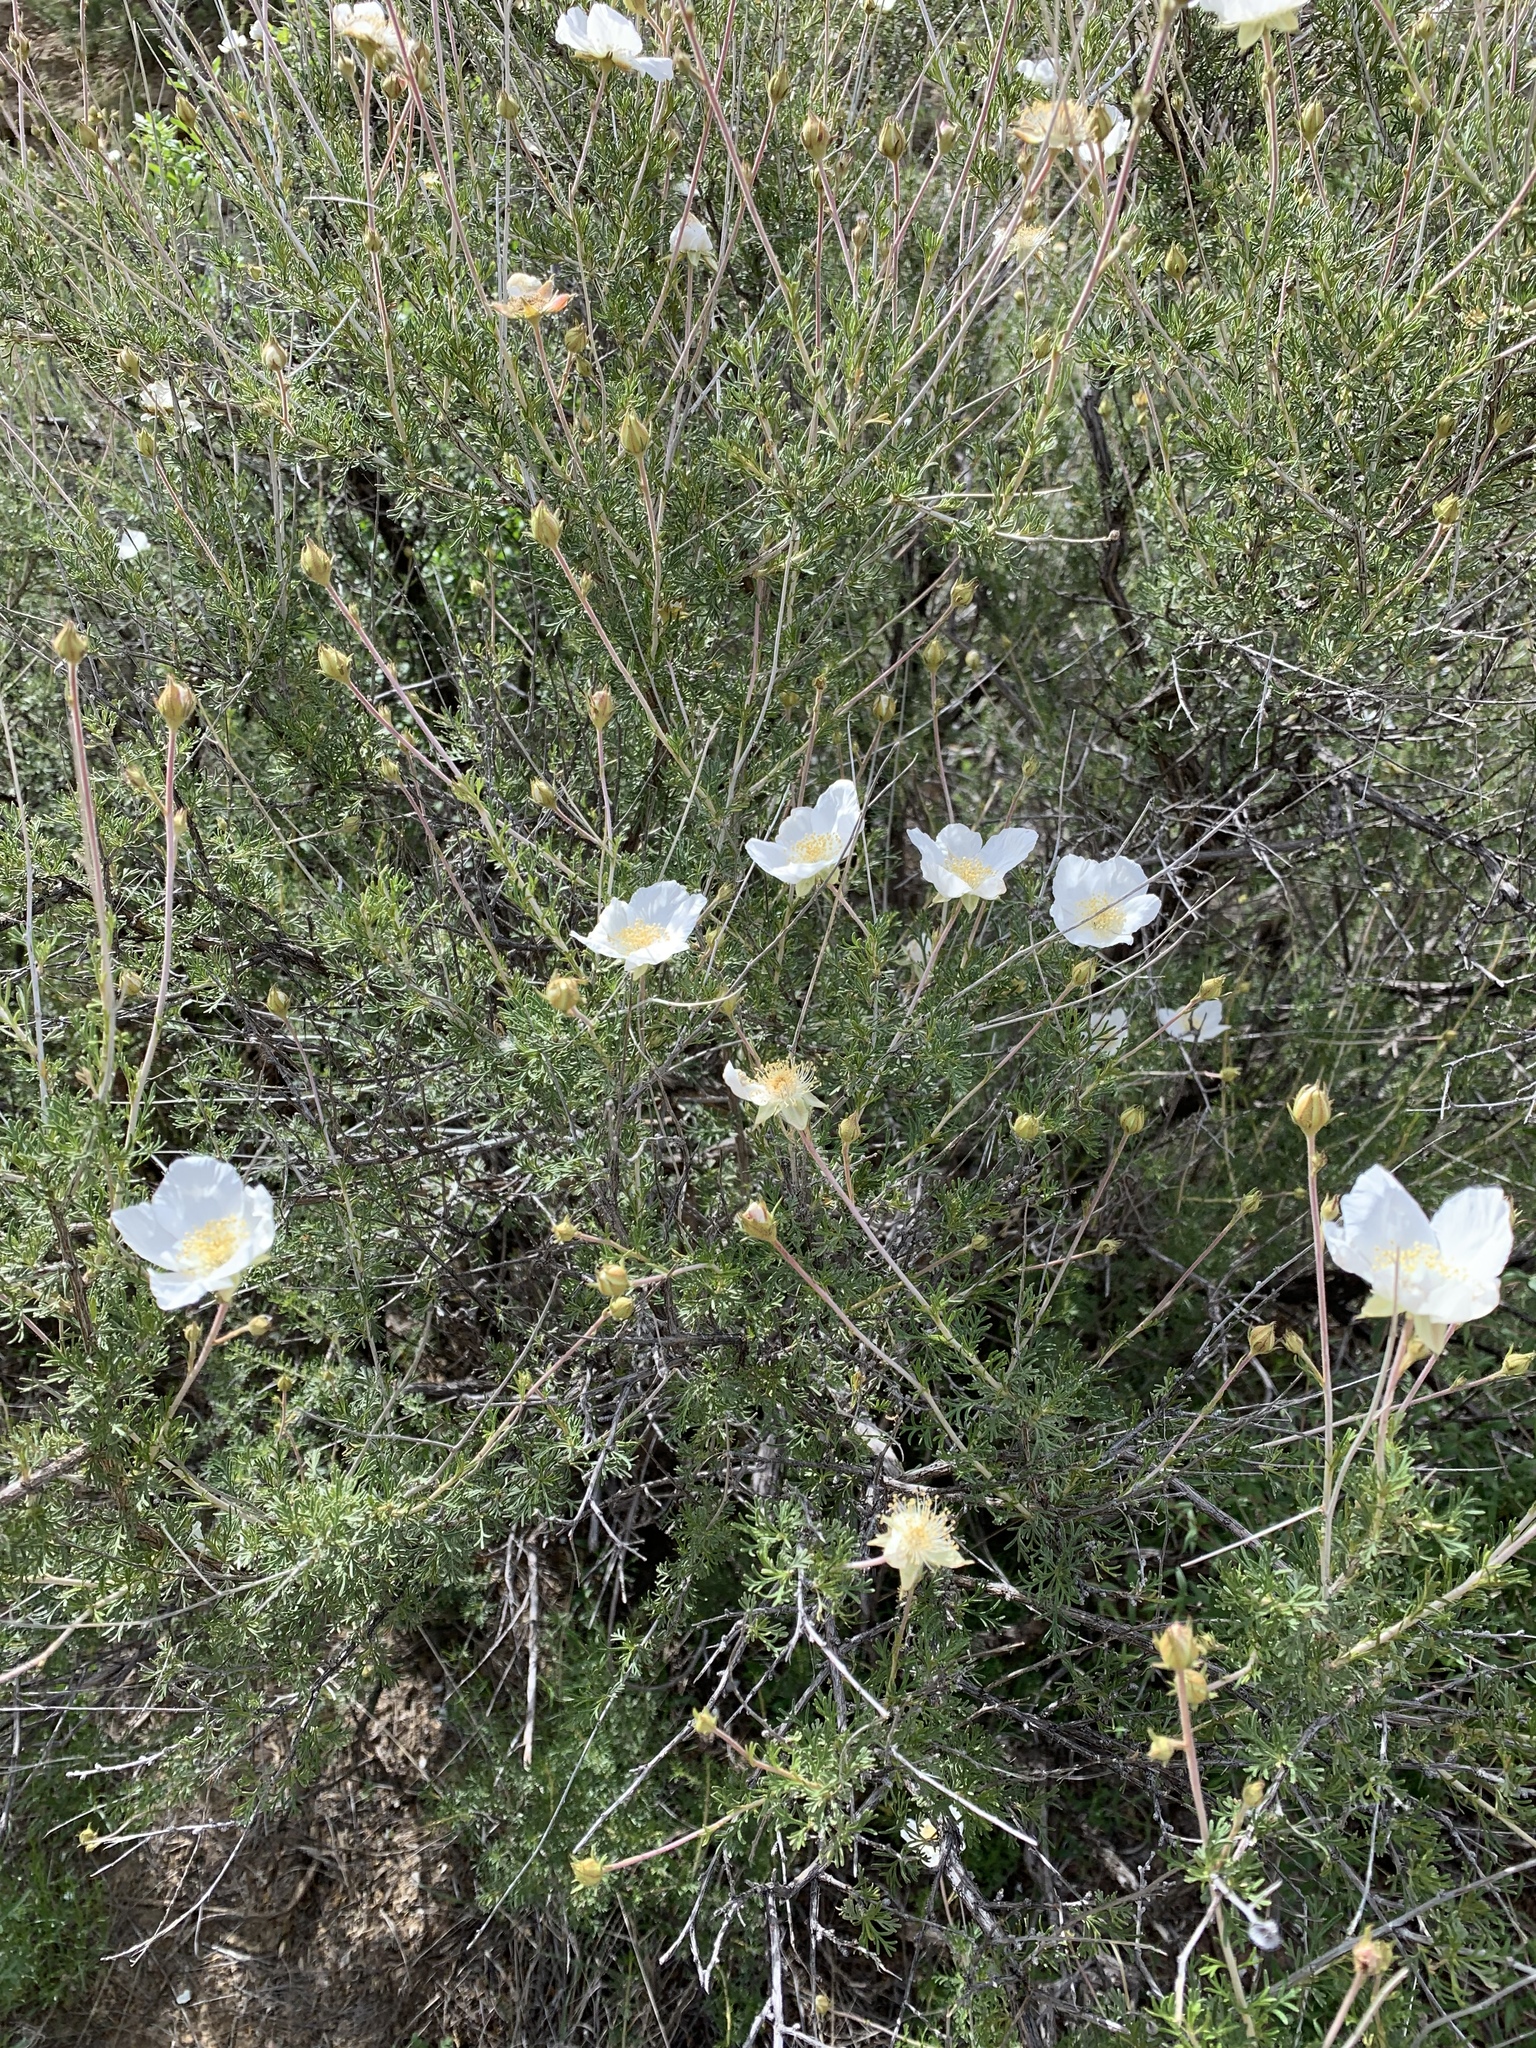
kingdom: Plantae
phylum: Tracheophyta
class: Magnoliopsida
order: Rosales
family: Rosaceae
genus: Fallugia
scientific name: Fallugia paradoxa
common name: Apache-plume
